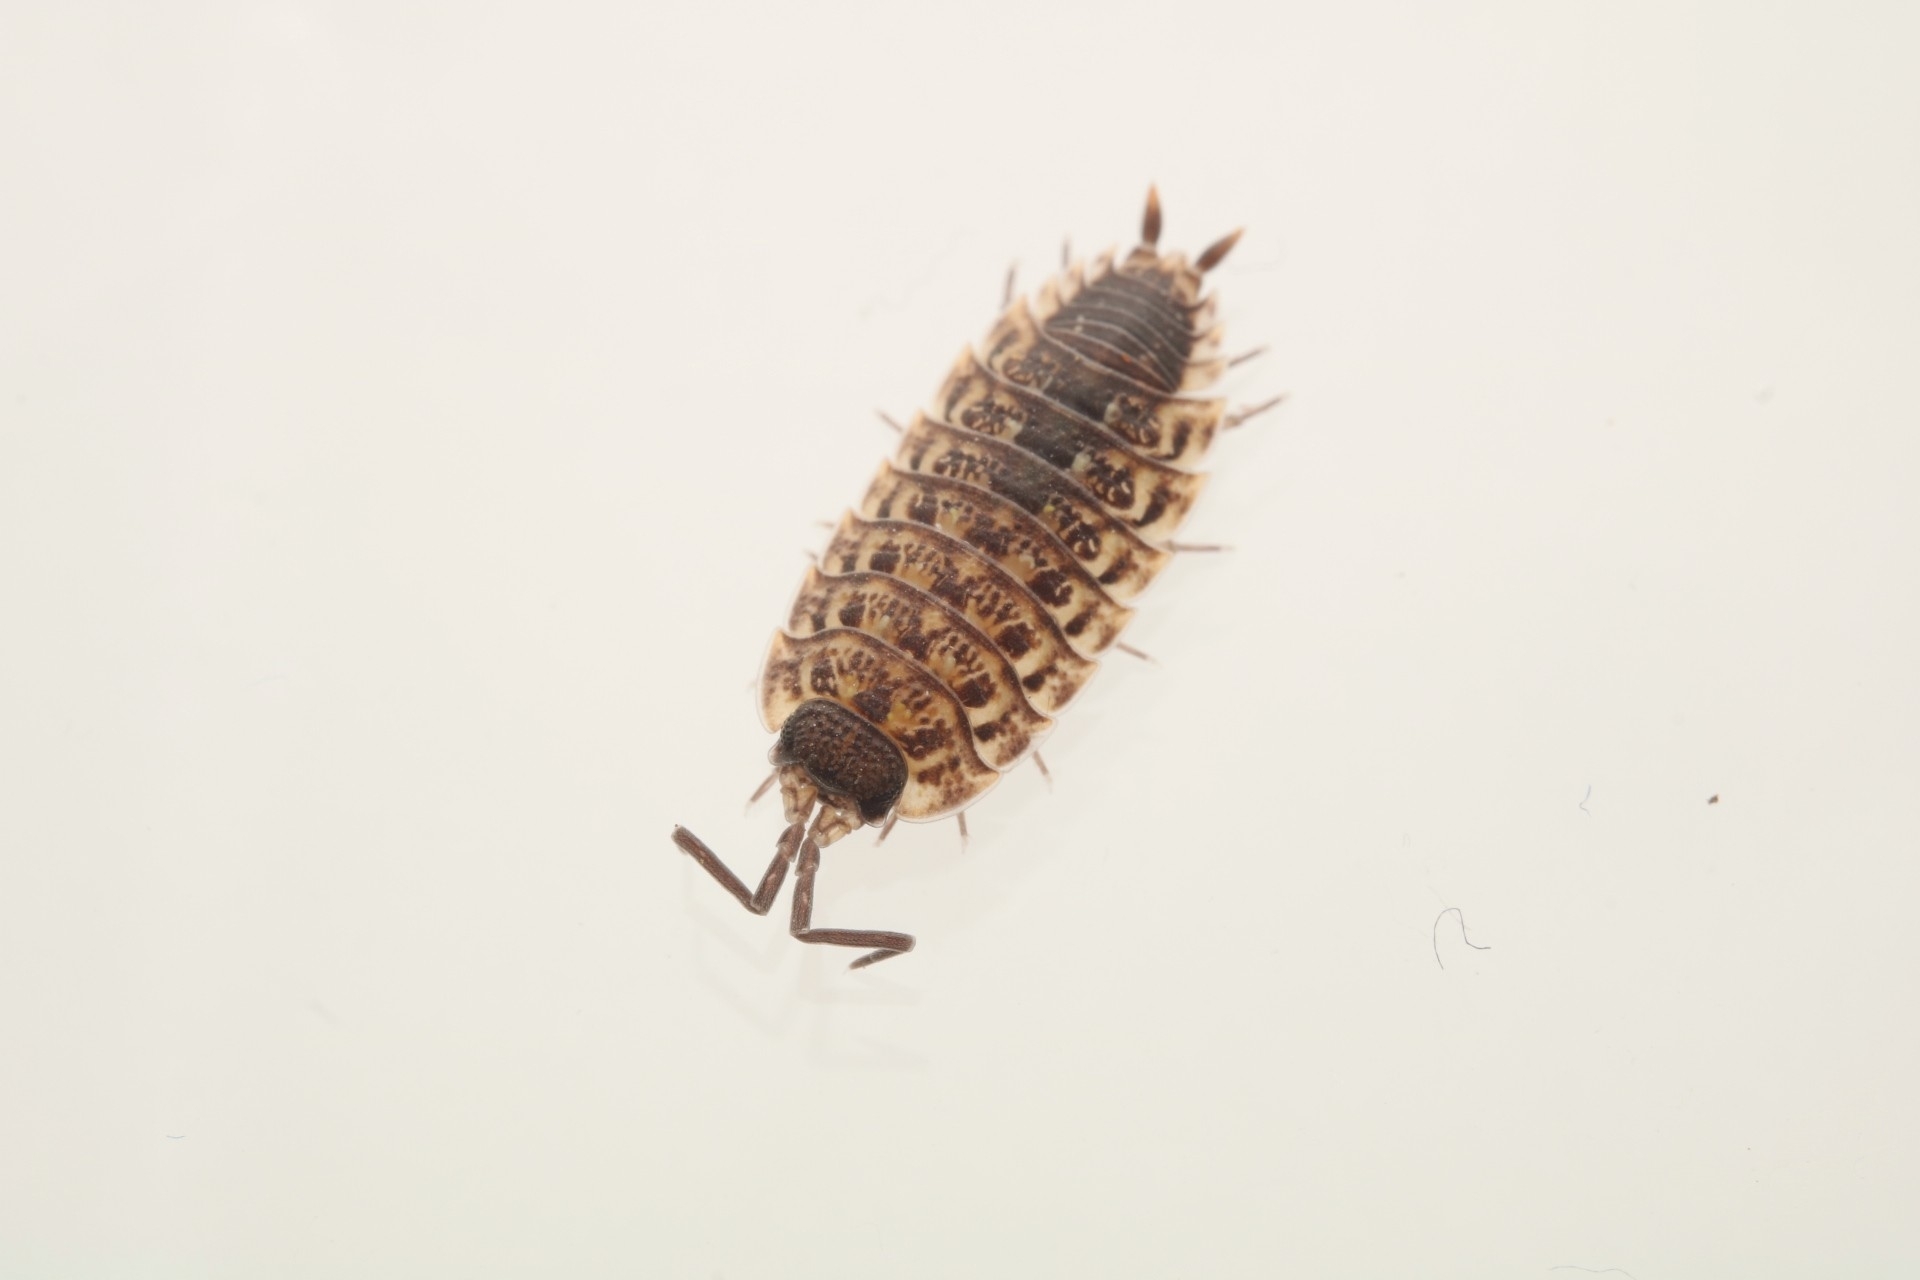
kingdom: Animalia
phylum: Arthropoda
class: Malacostraca
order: Isopoda
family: Porcellionidae
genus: Porcellio
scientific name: Porcellio spinicornis
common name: Painted woodlouse
